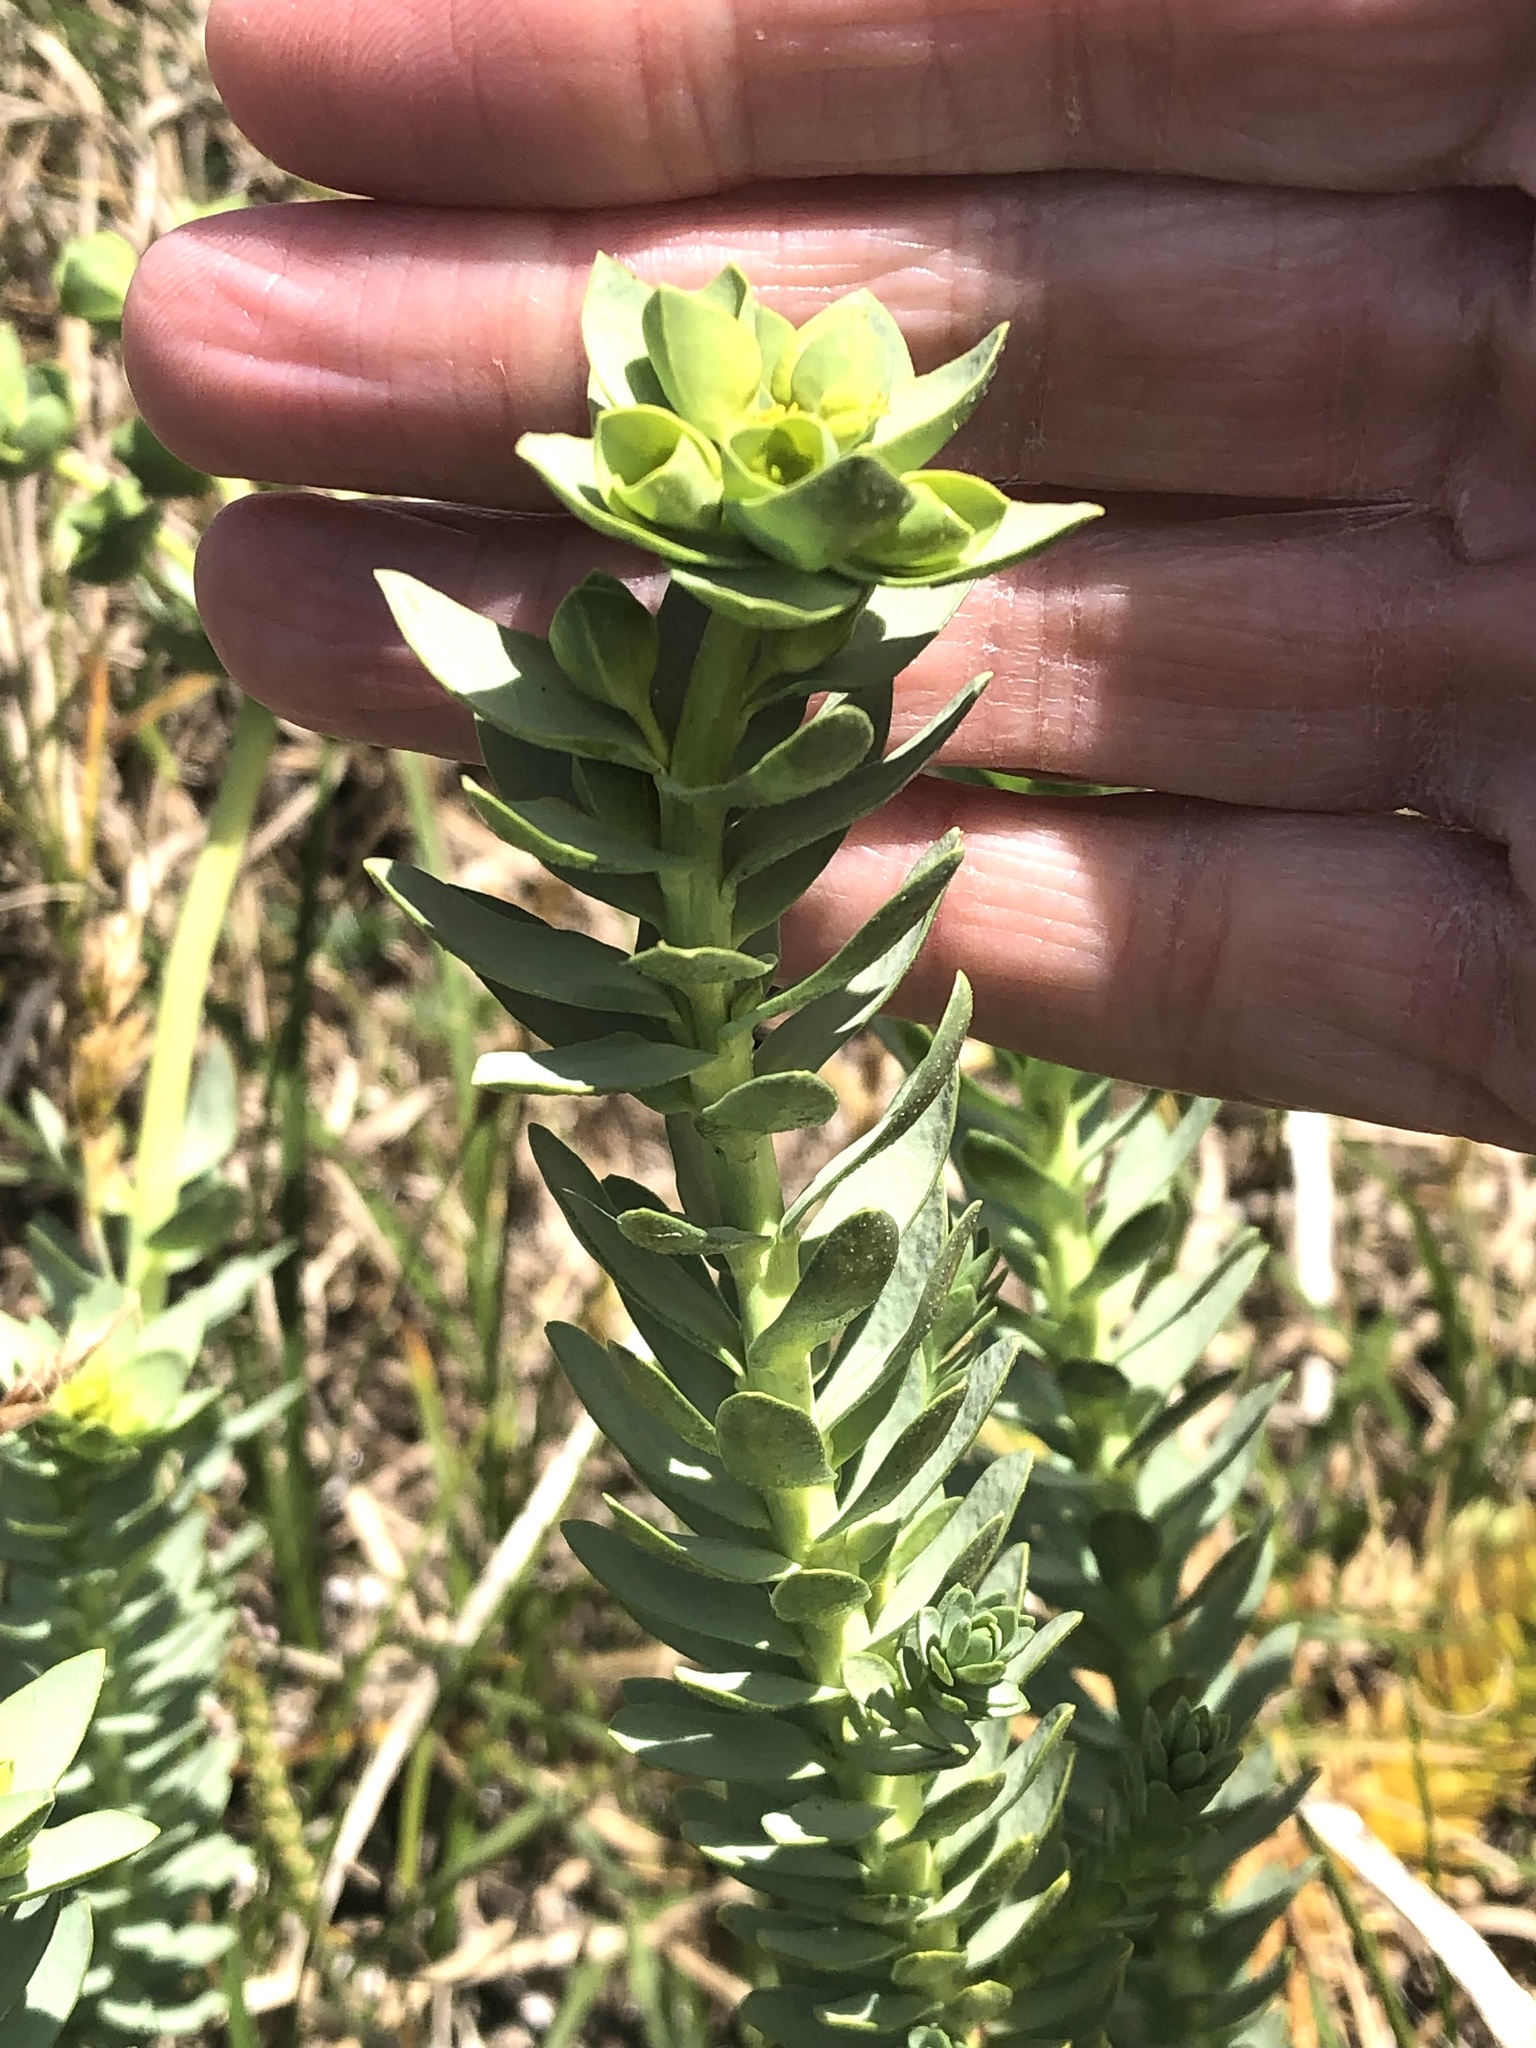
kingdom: Plantae
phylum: Tracheophyta
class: Magnoliopsida
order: Malpighiales
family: Euphorbiaceae
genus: Euphorbia
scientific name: Euphorbia paralias
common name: Sea spurge
